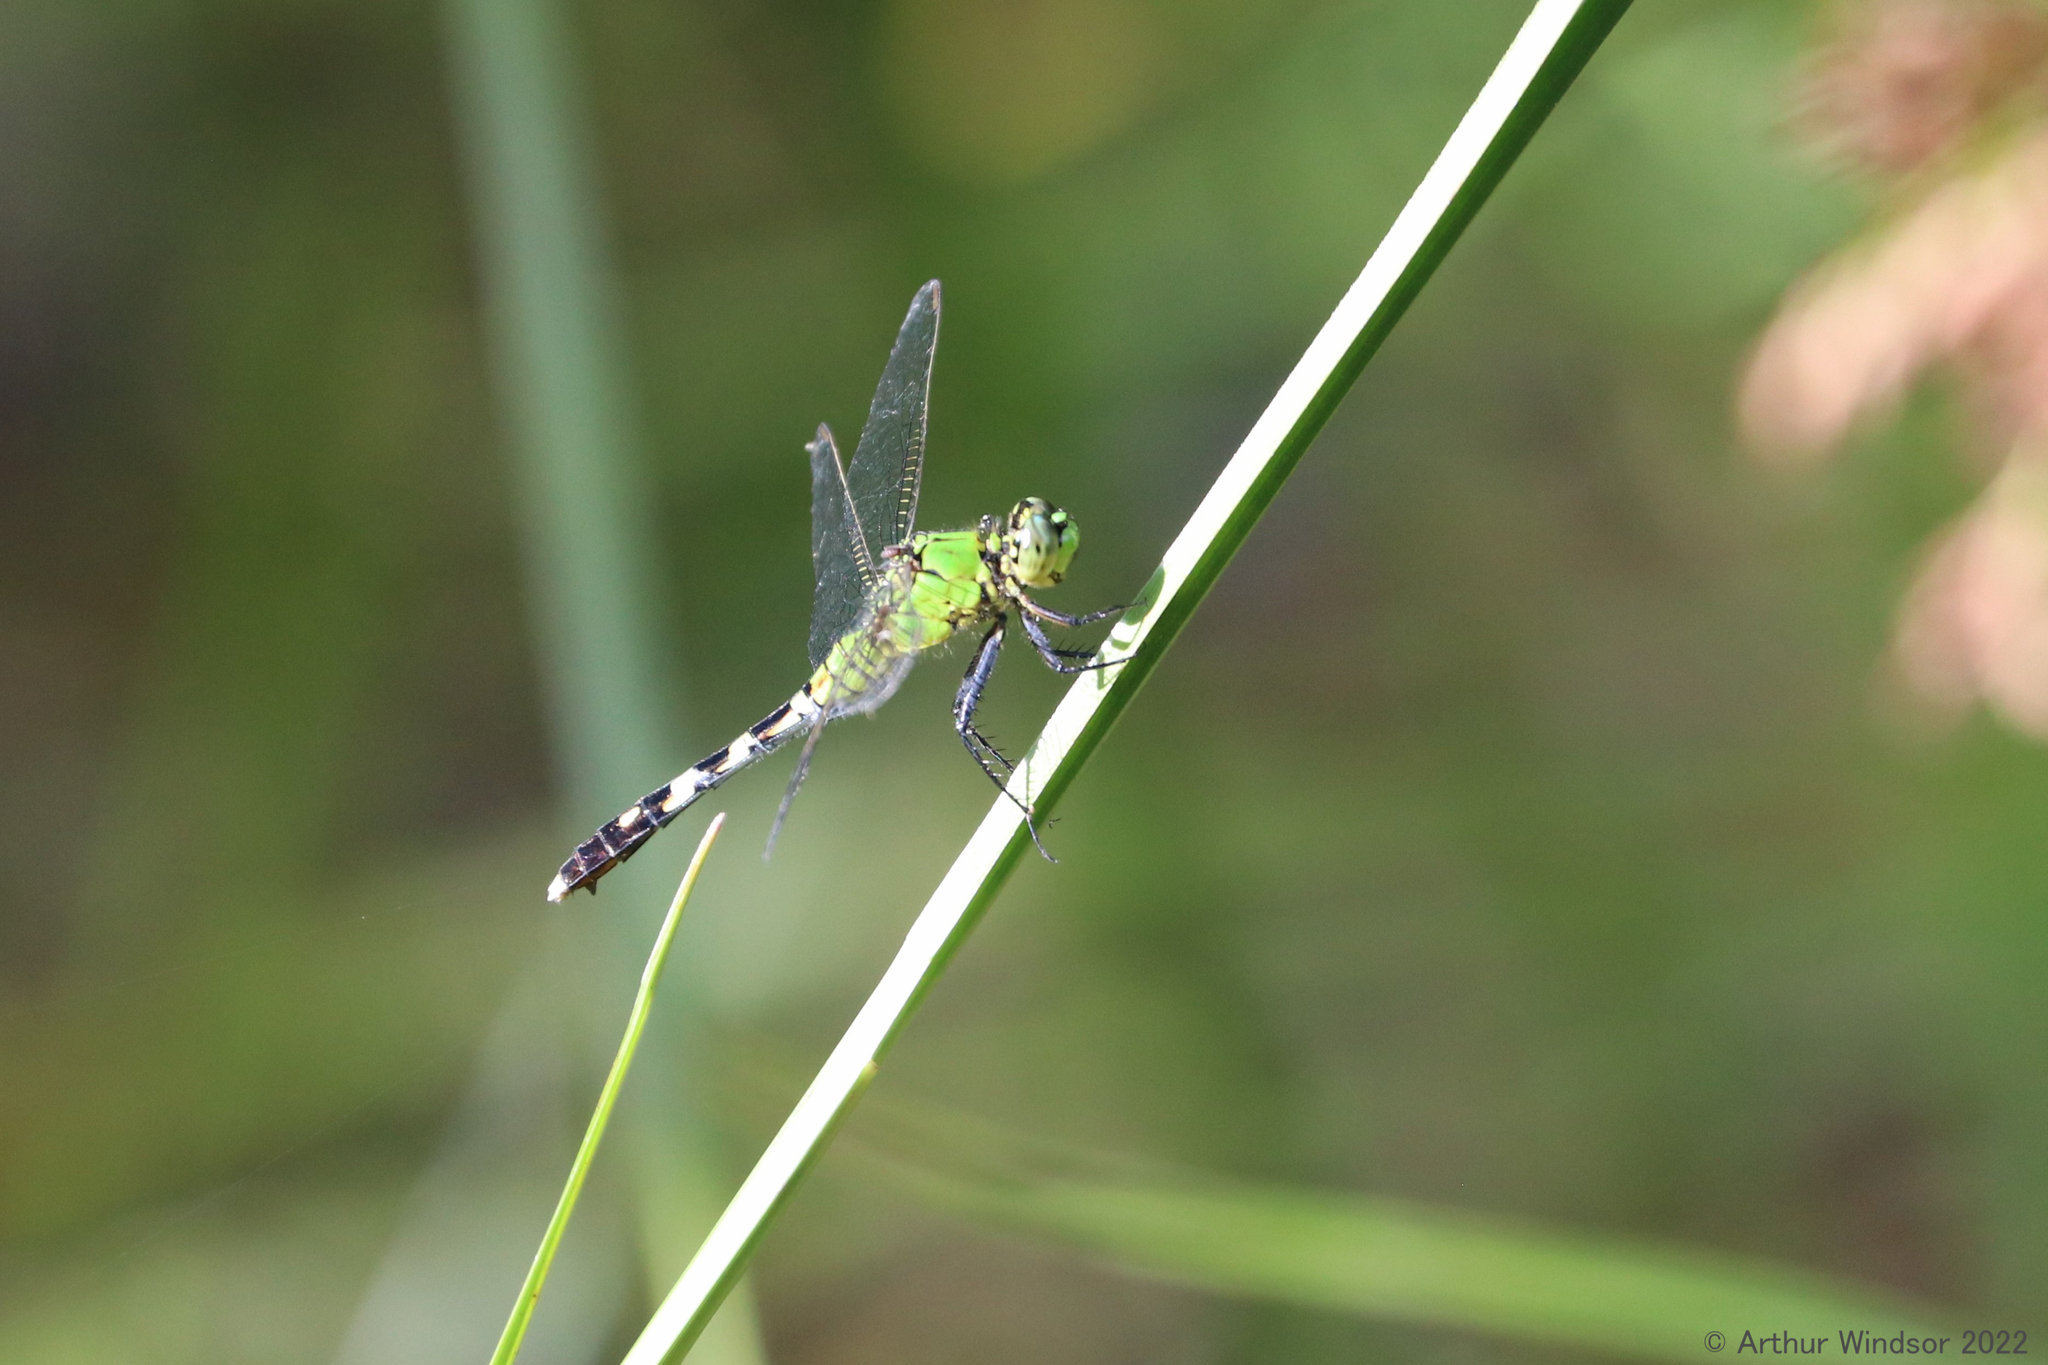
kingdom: Animalia
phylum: Arthropoda
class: Insecta
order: Odonata
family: Libellulidae
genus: Erythemis
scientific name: Erythemis simplicicollis
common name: Eastern pondhawk
